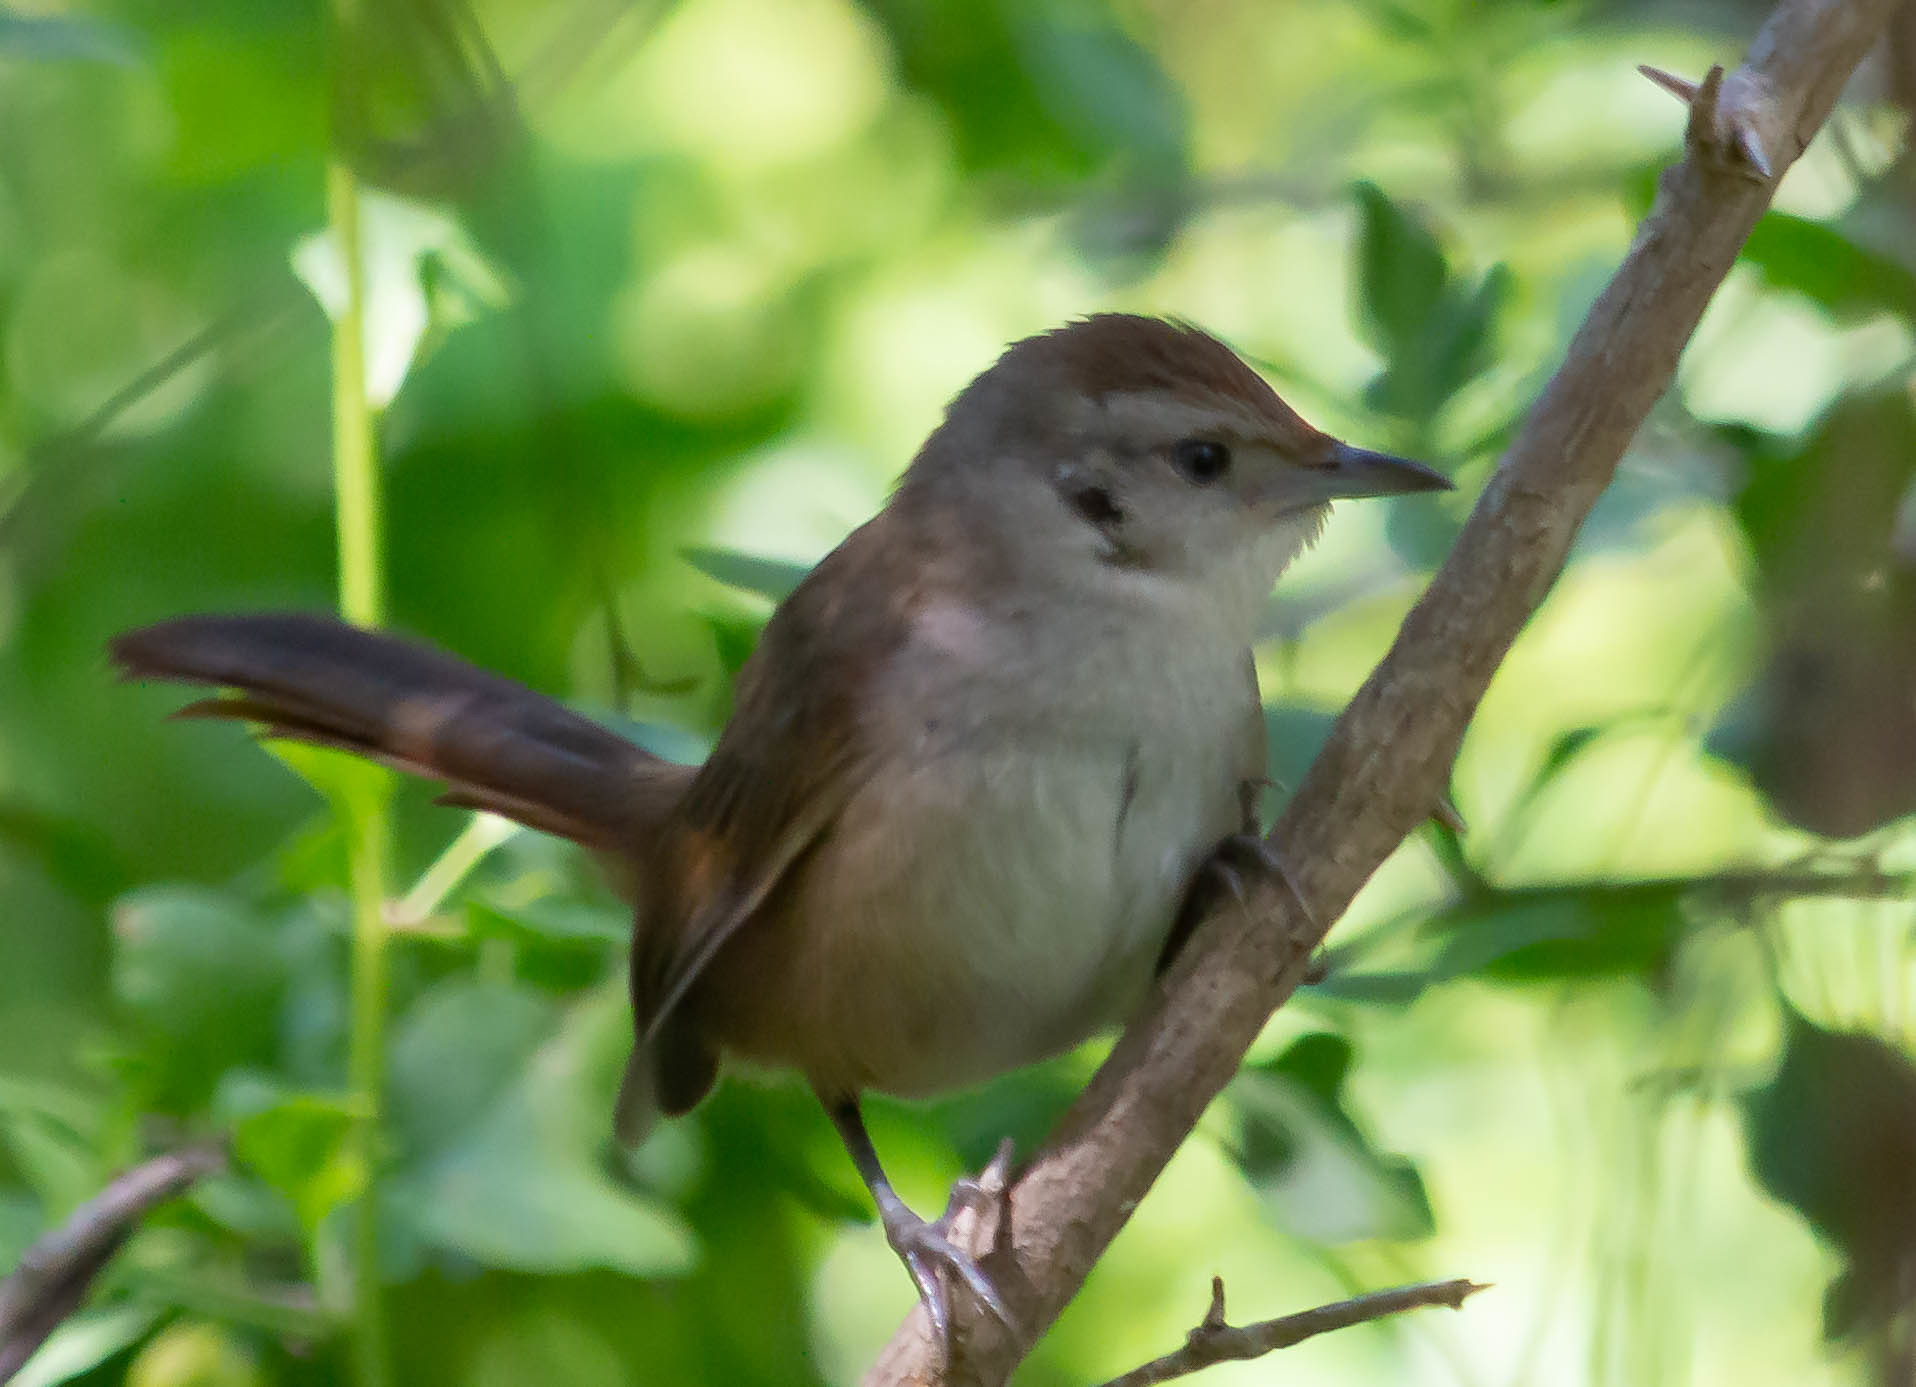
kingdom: Animalia
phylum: Chordata
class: Aves
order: Passeriformes
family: Furnariidae
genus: Phacellodomus
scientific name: Phacellodomus sibilatrix
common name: Little thornbird
